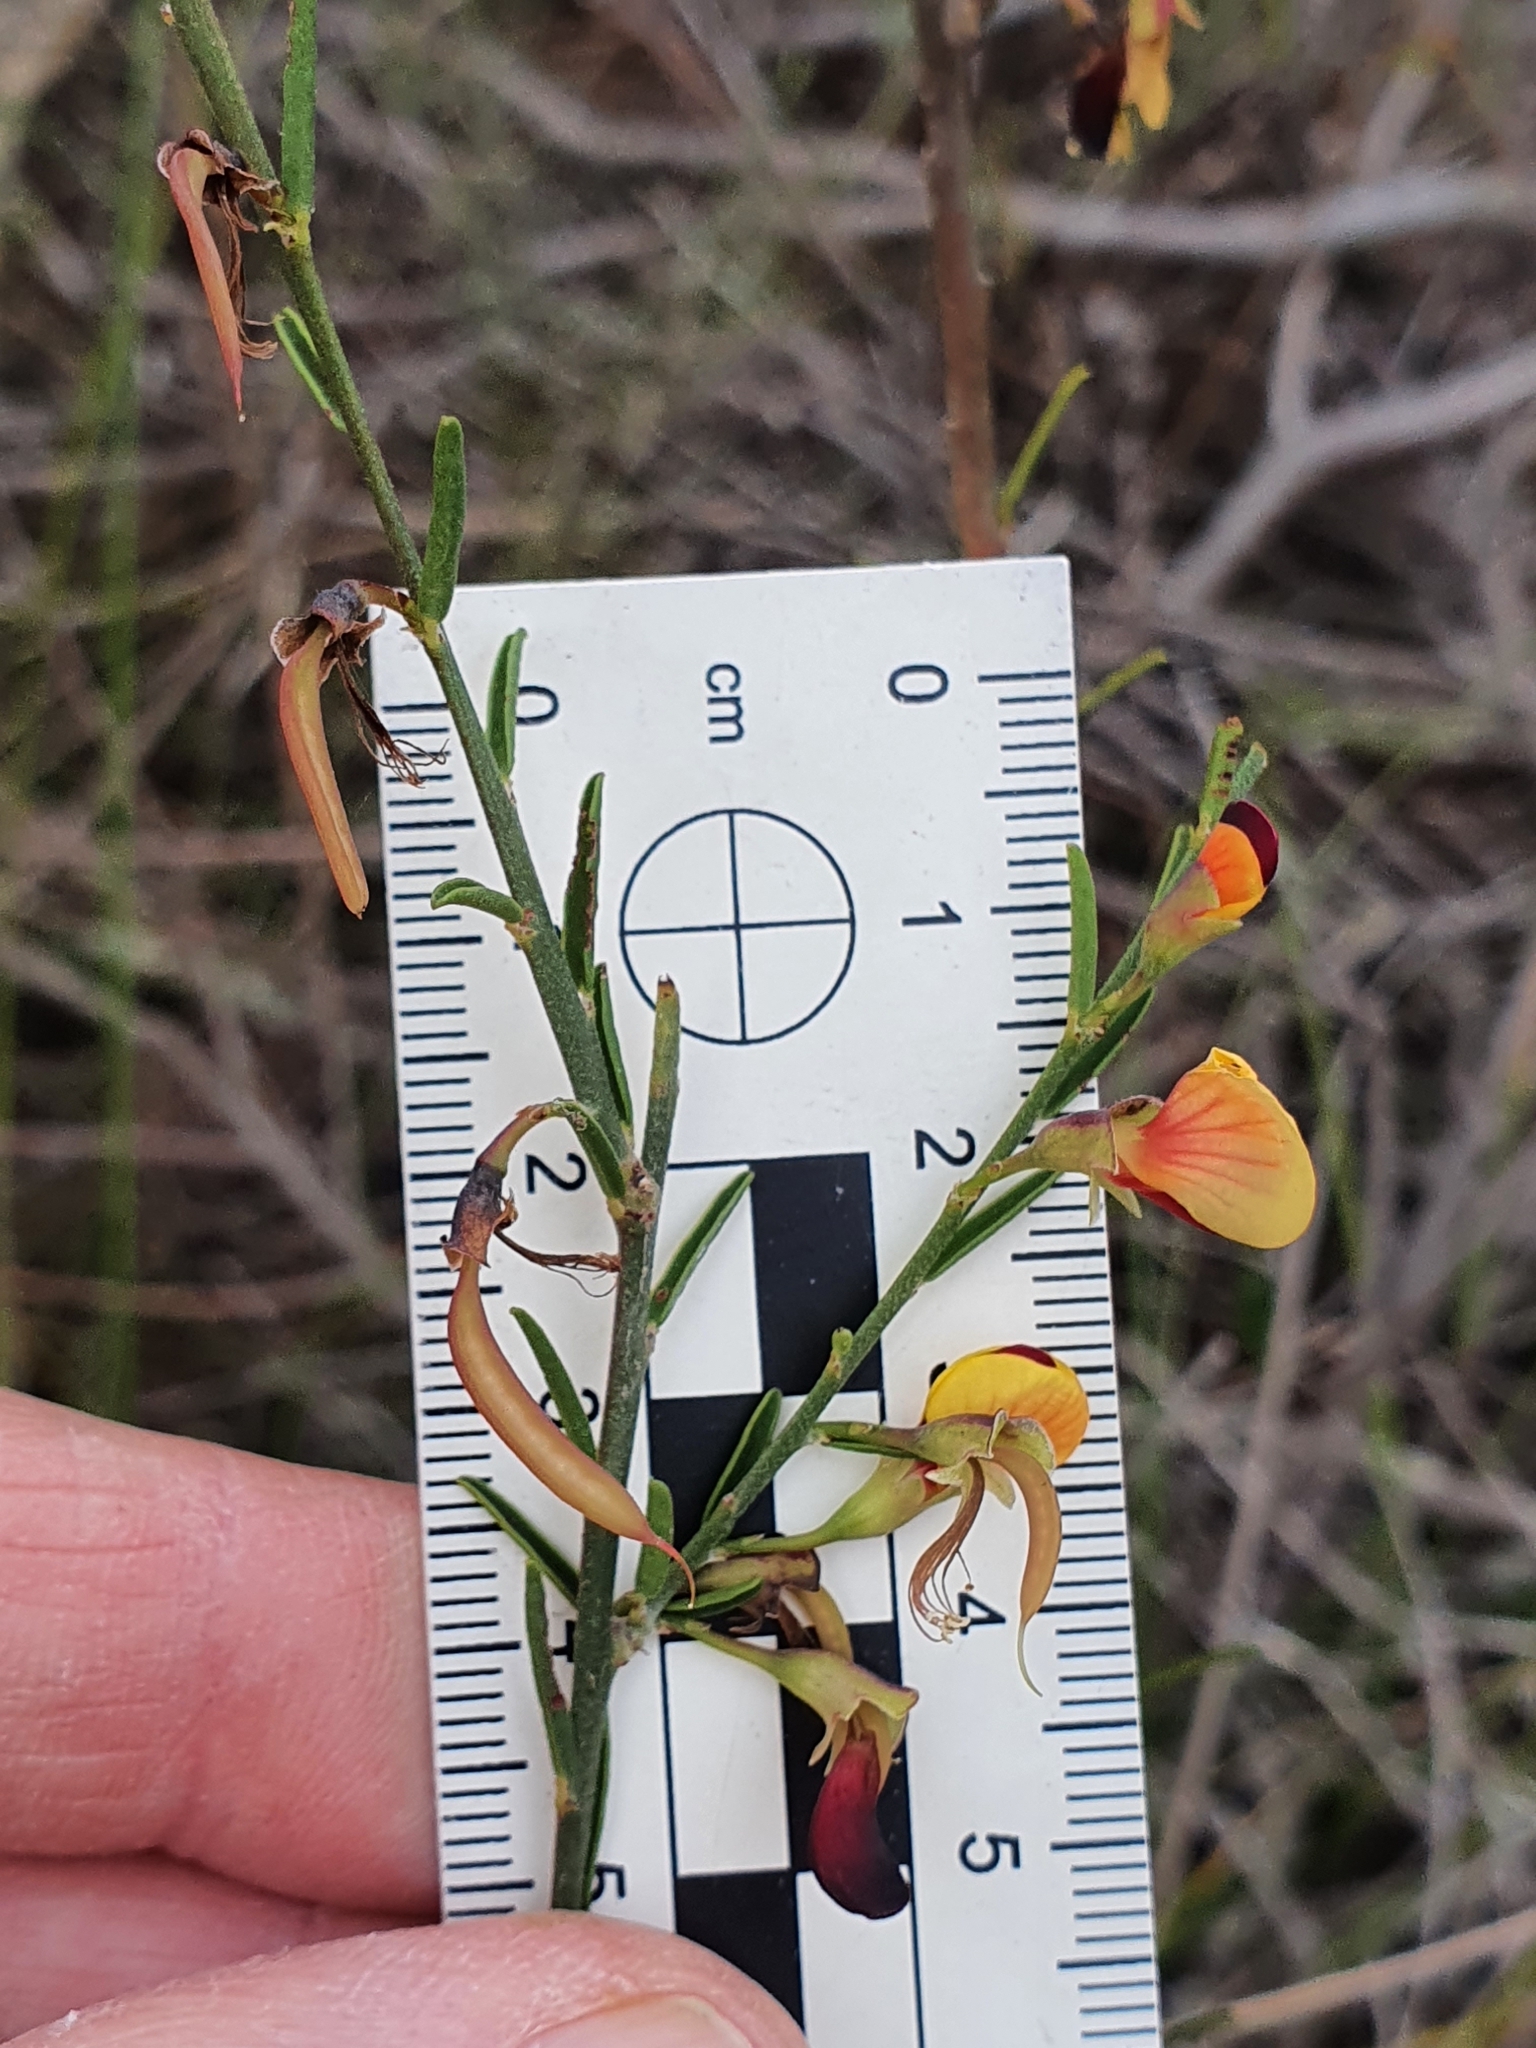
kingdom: Plantae
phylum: Tracheophyta
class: Magnoliopsida
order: Fabales
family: Fabaceae
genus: Bossiaea
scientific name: Bossiaea heterophylla
